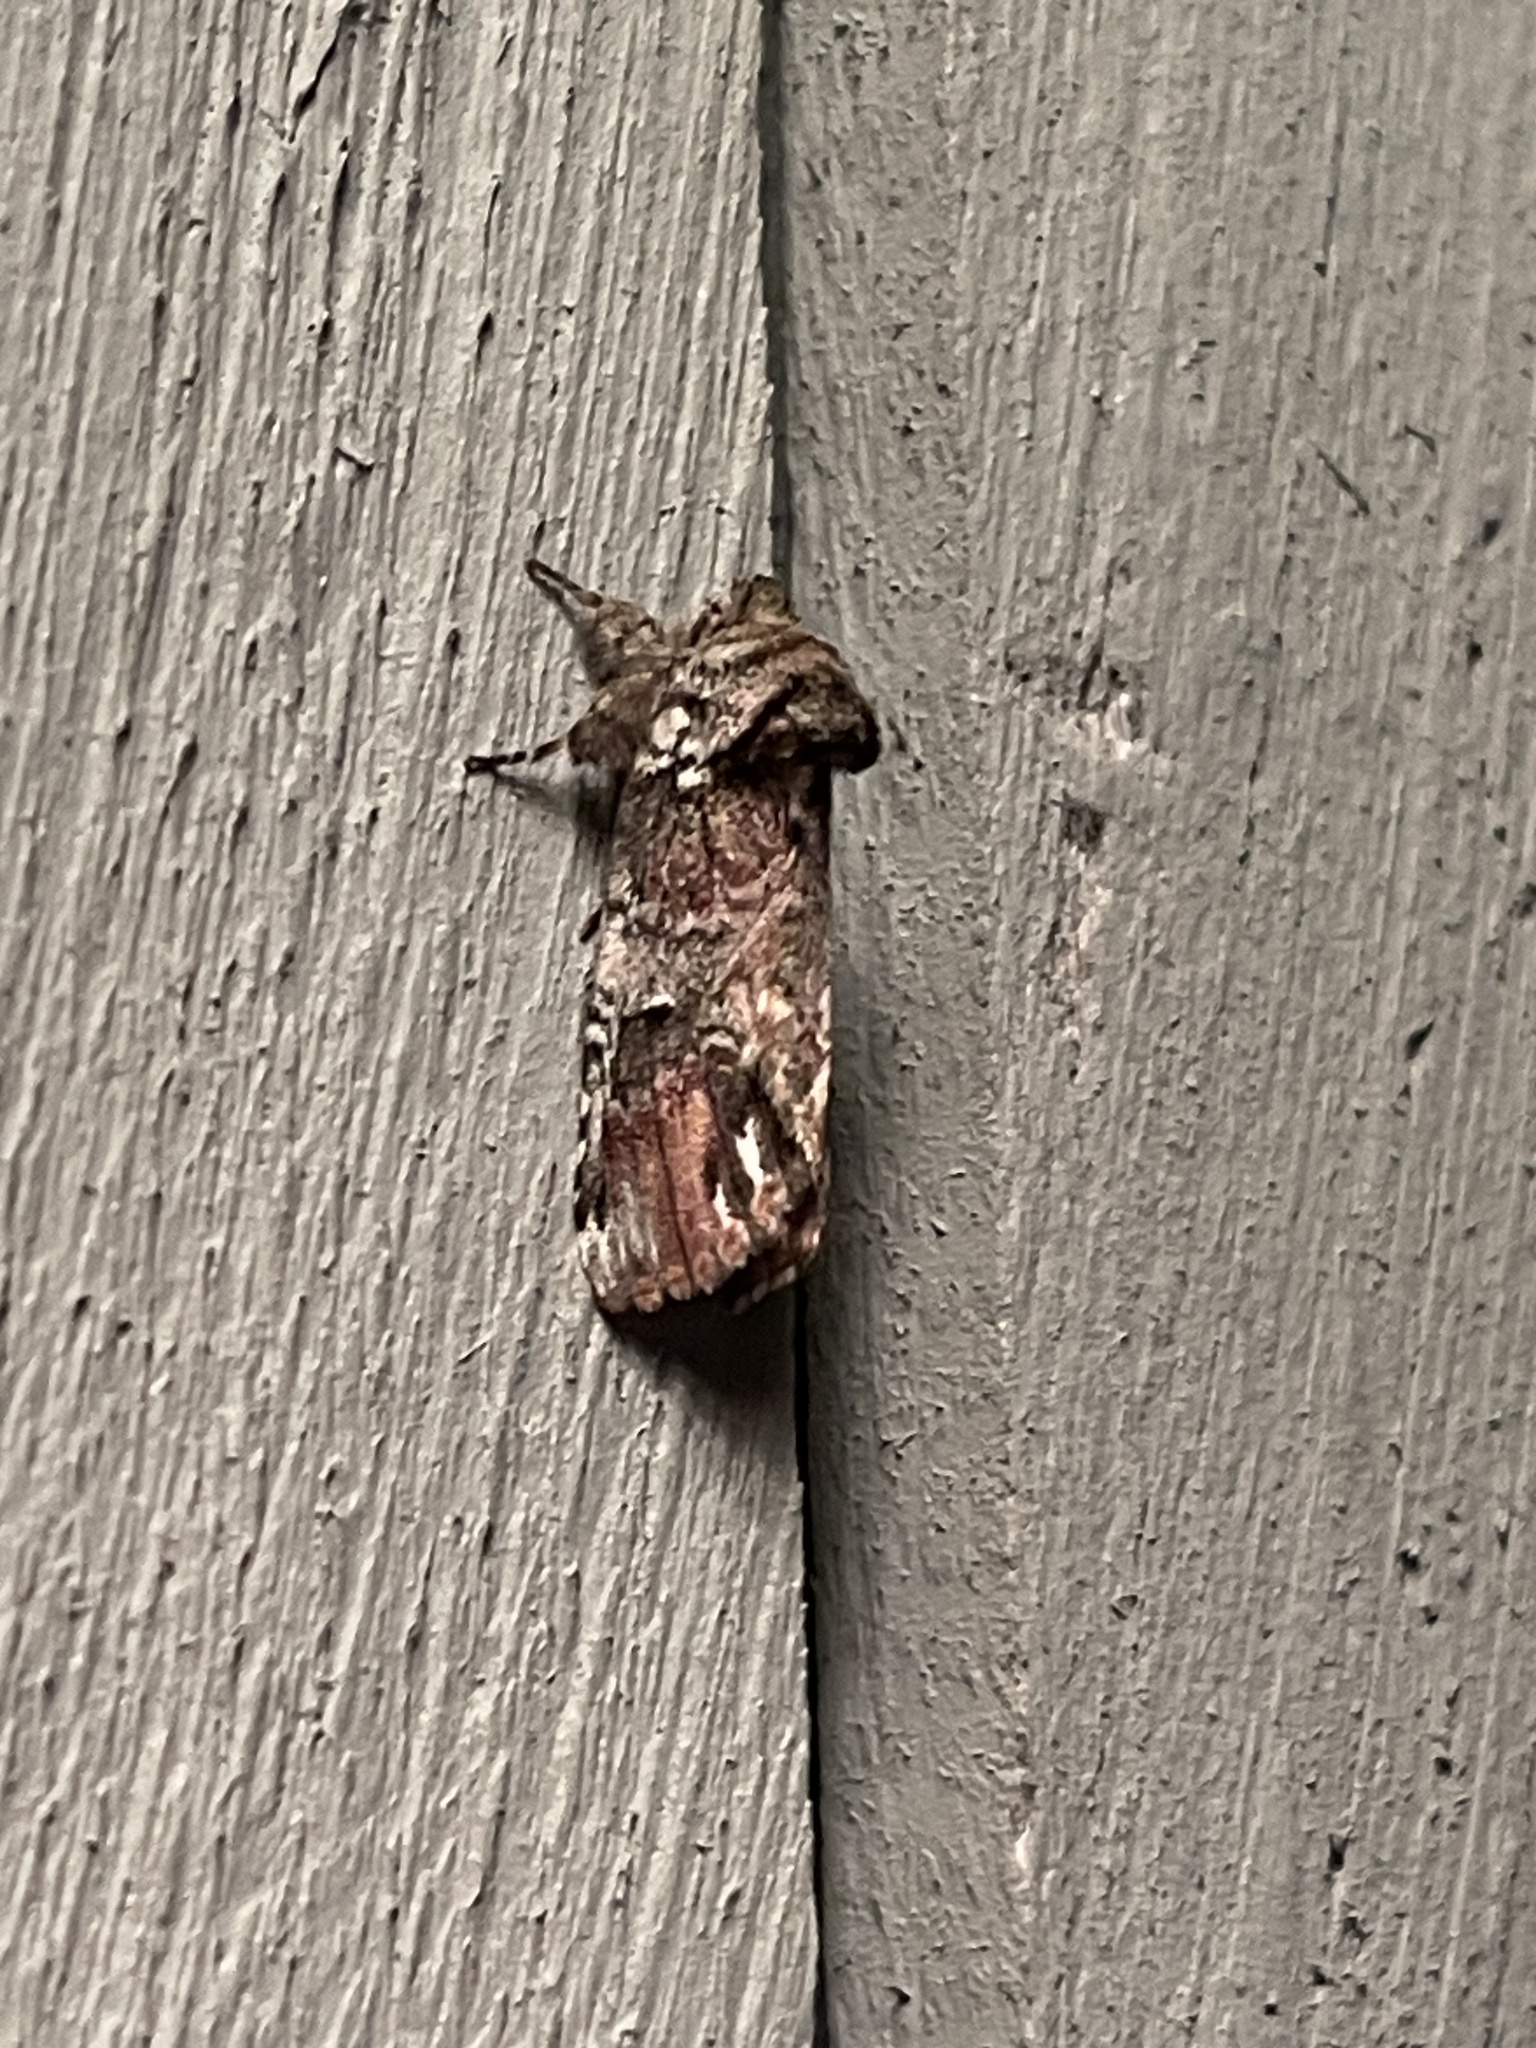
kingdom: Animalia
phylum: Arthropoda
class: Insecta
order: Lepidoptera
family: Notodontidae
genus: Schizura
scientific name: Schizura
